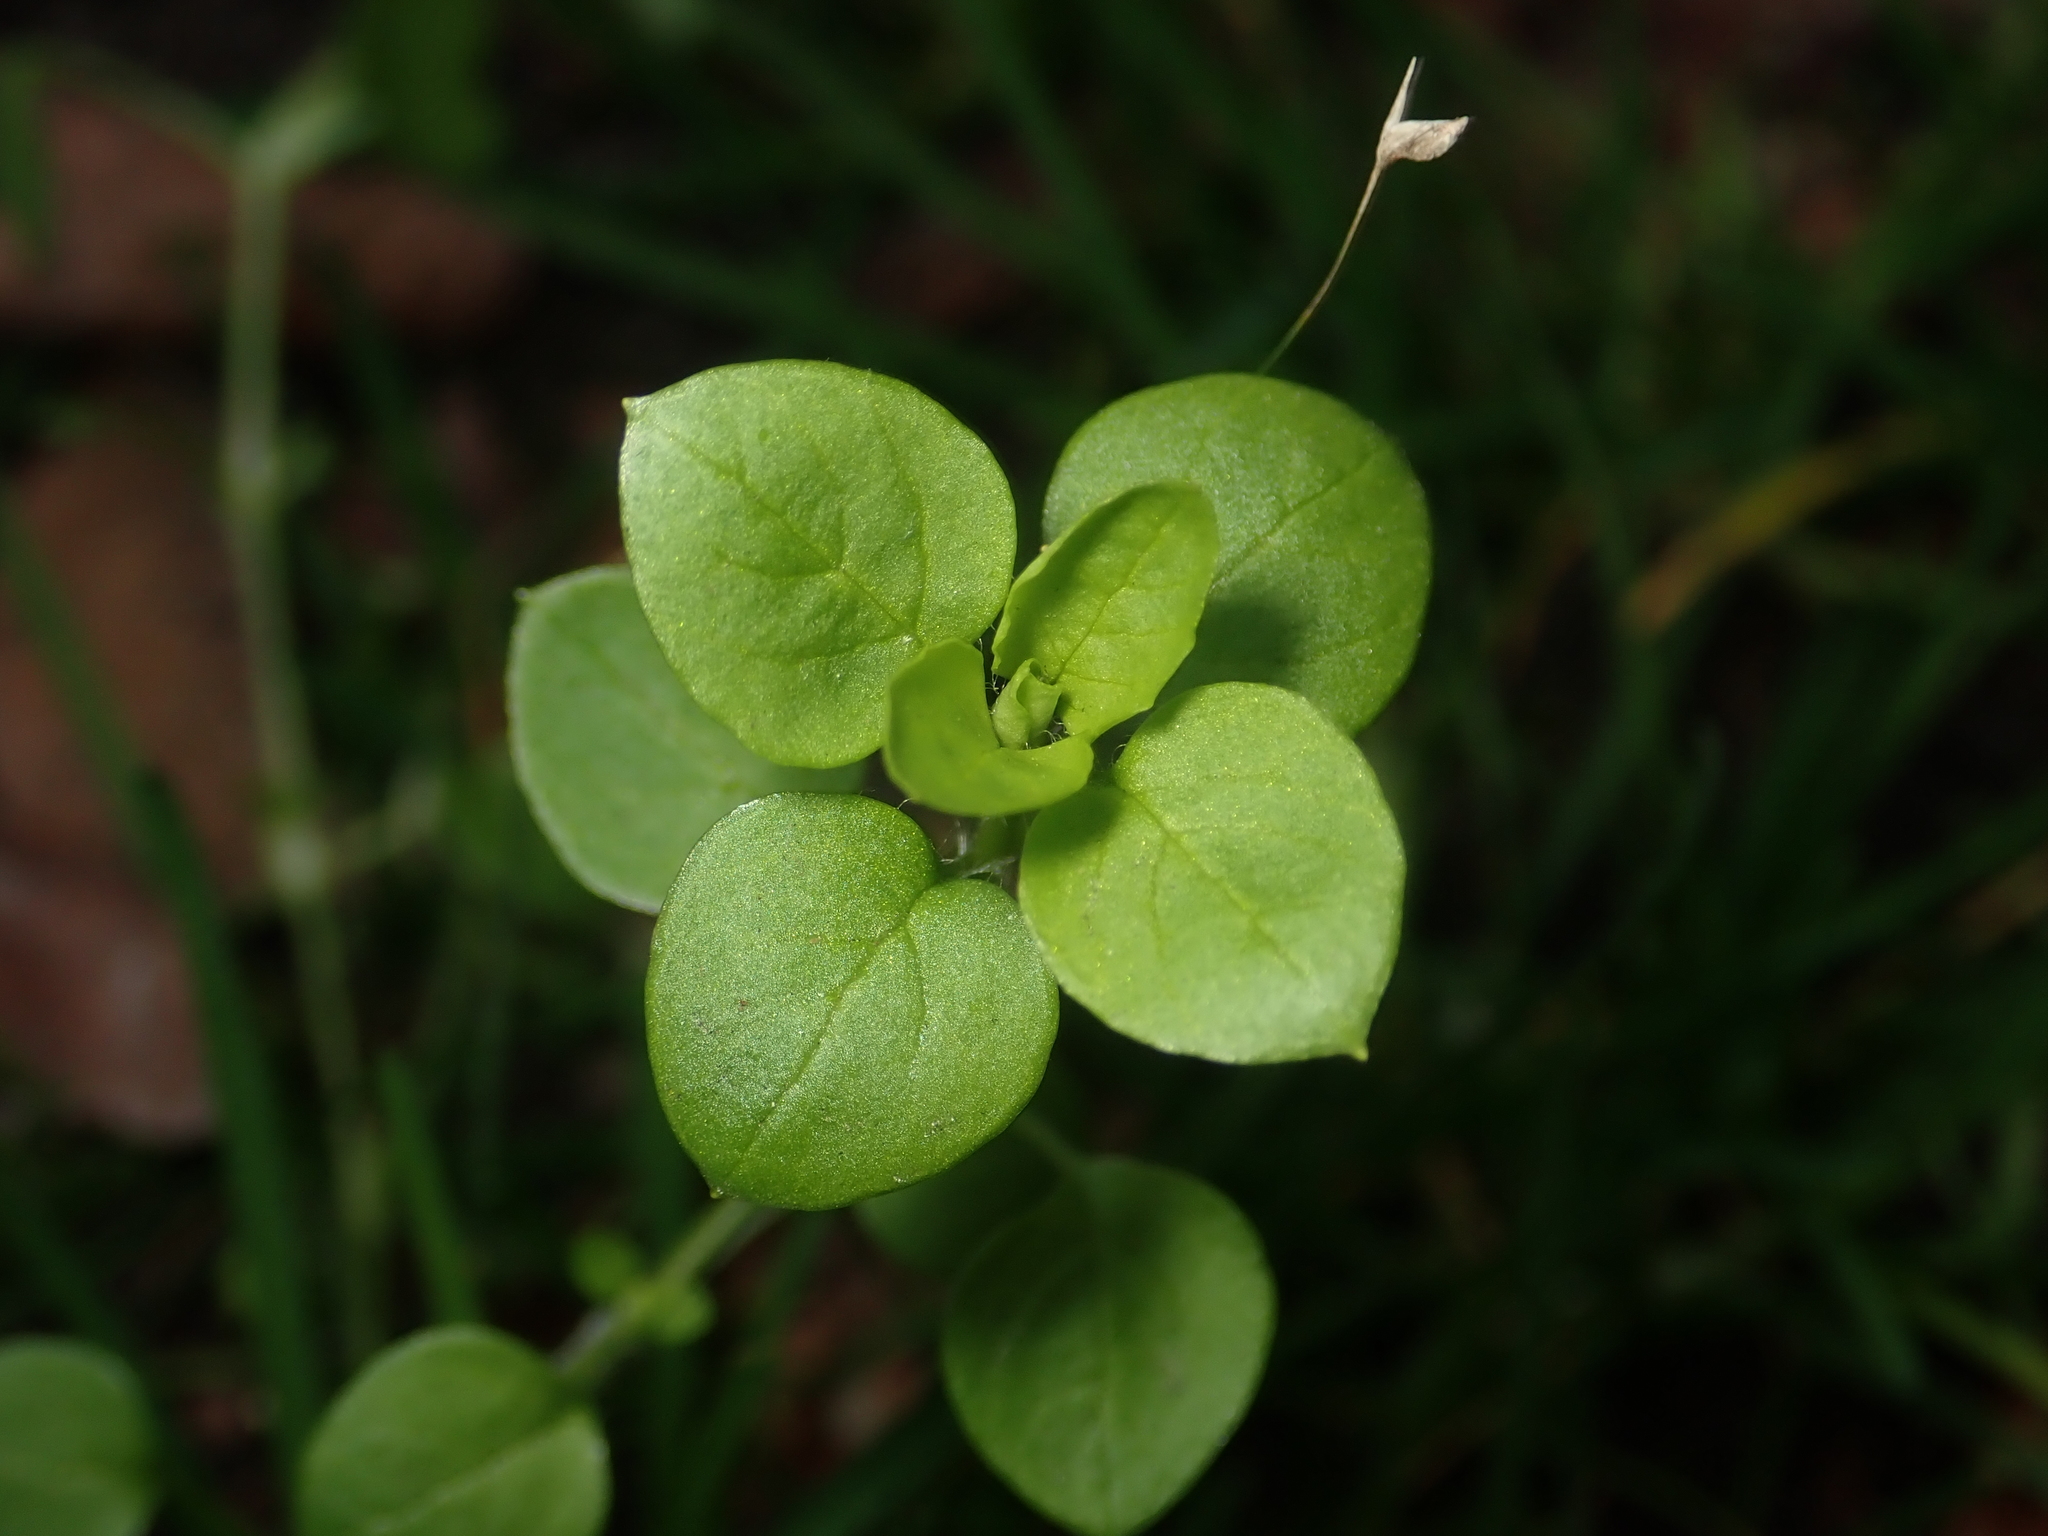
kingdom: Plantae
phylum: Tracheophyta
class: Magnoliopsida
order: Caryophyllales
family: Caryophyllaceae
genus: Stellaria
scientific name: Stellaria media
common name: Common chickweed
